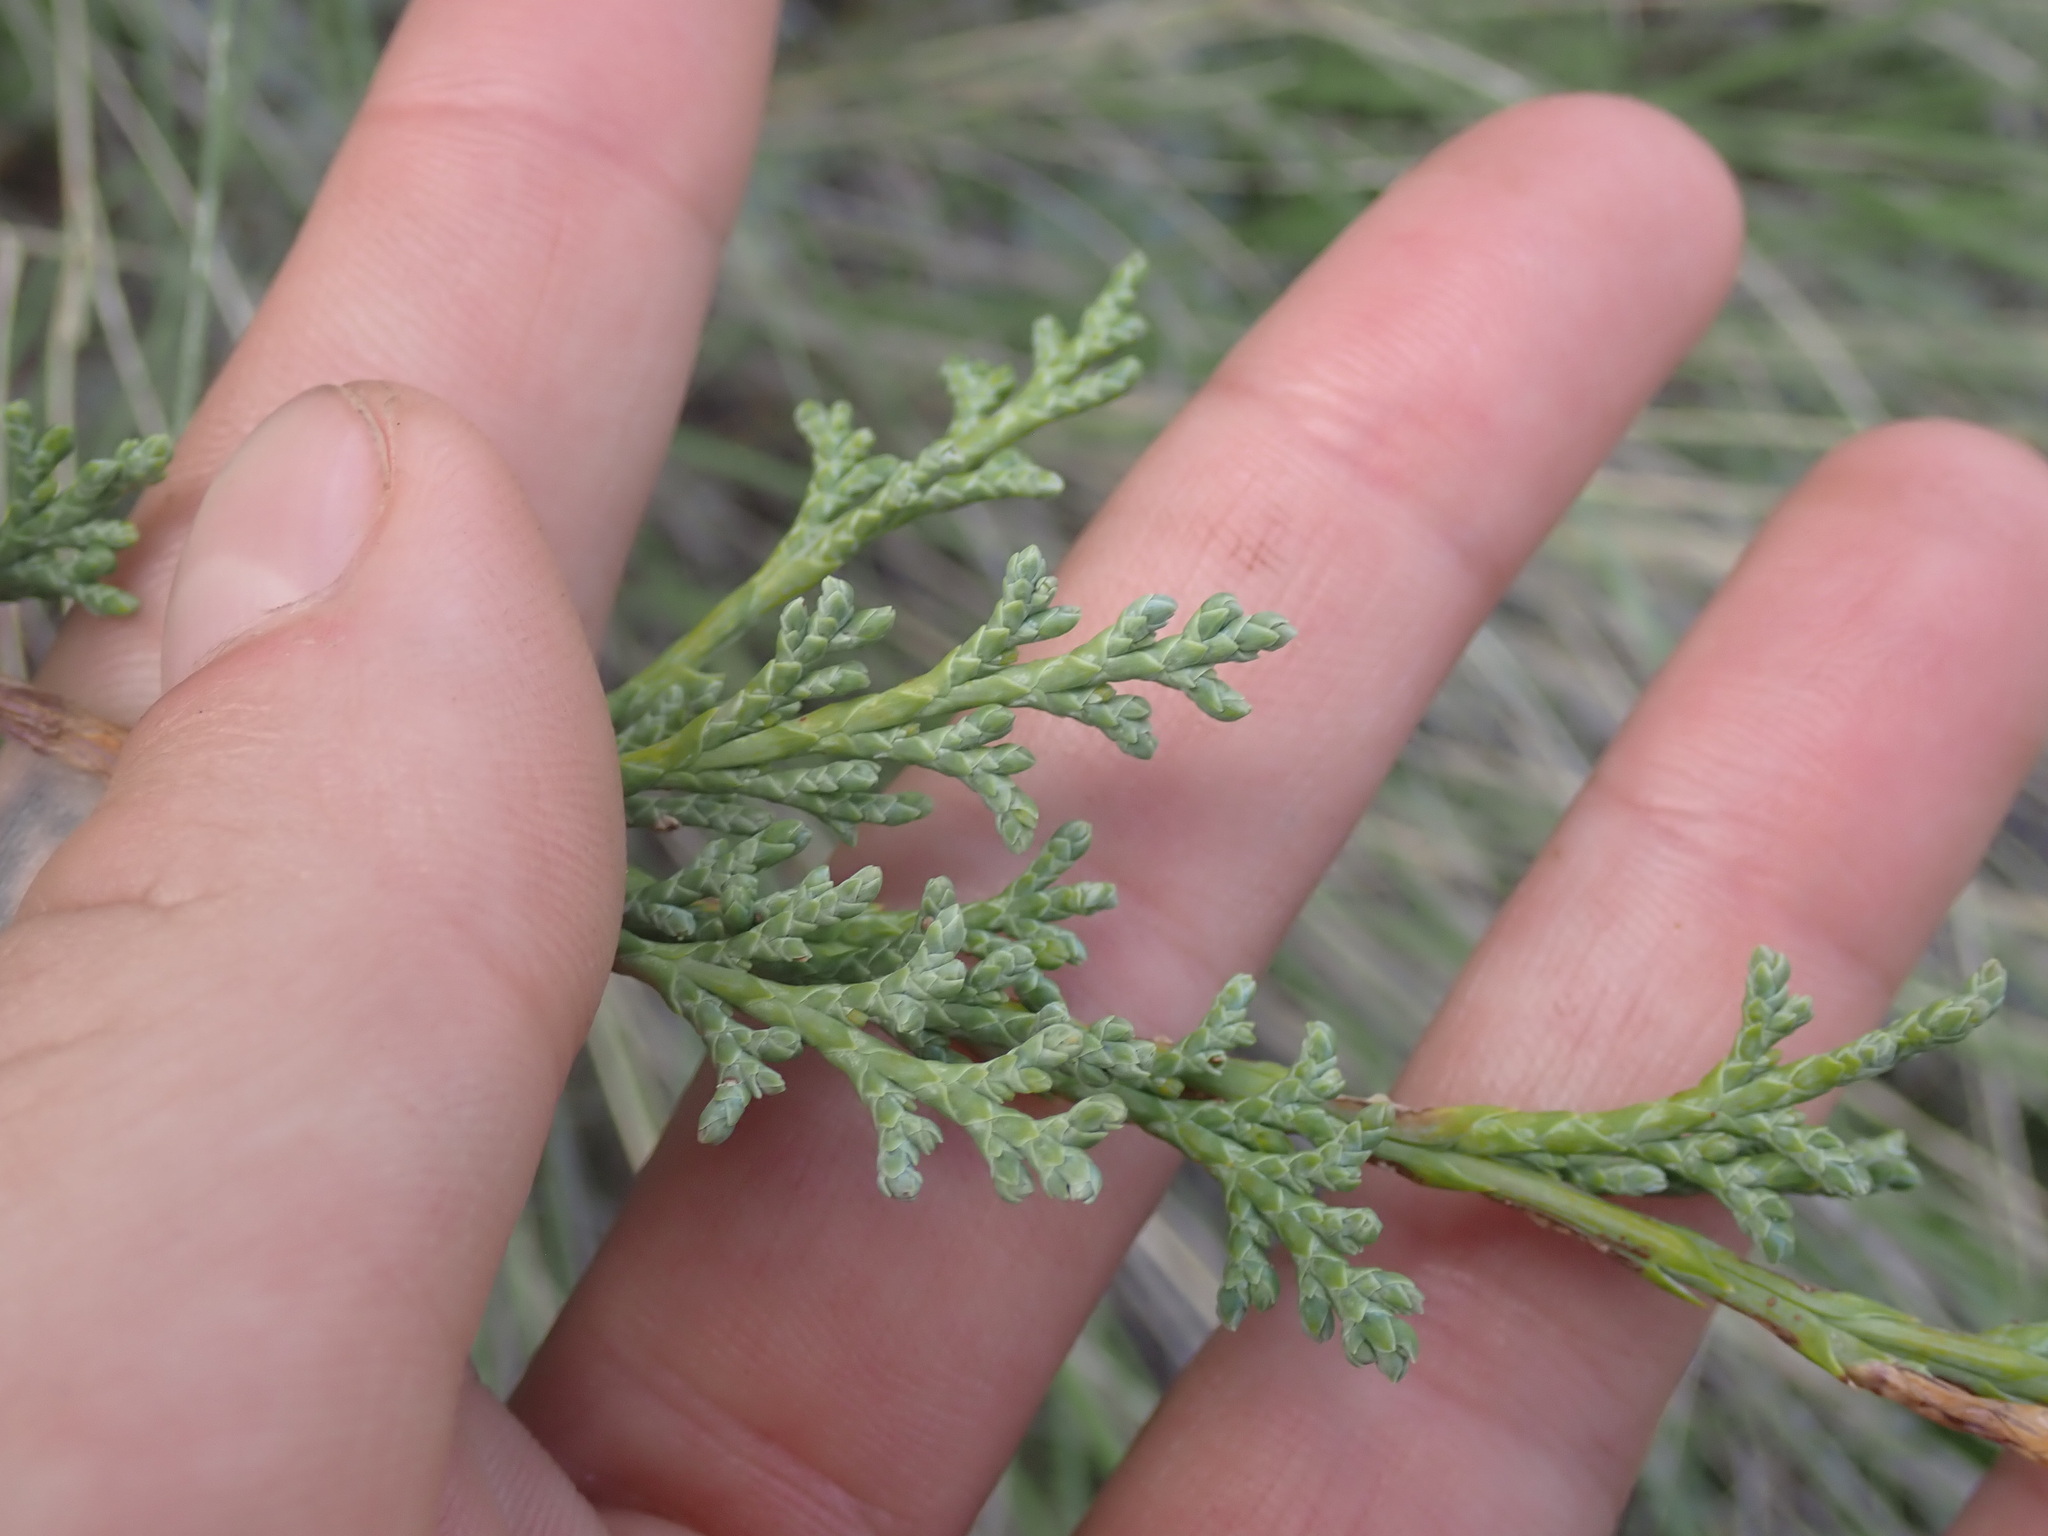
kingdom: Plantae
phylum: Tracheophyta
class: Pinopsida
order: Pinales
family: Cupressaceae
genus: Juniperus
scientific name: Juniperus scopulorum
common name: Rocky mountain juniper
